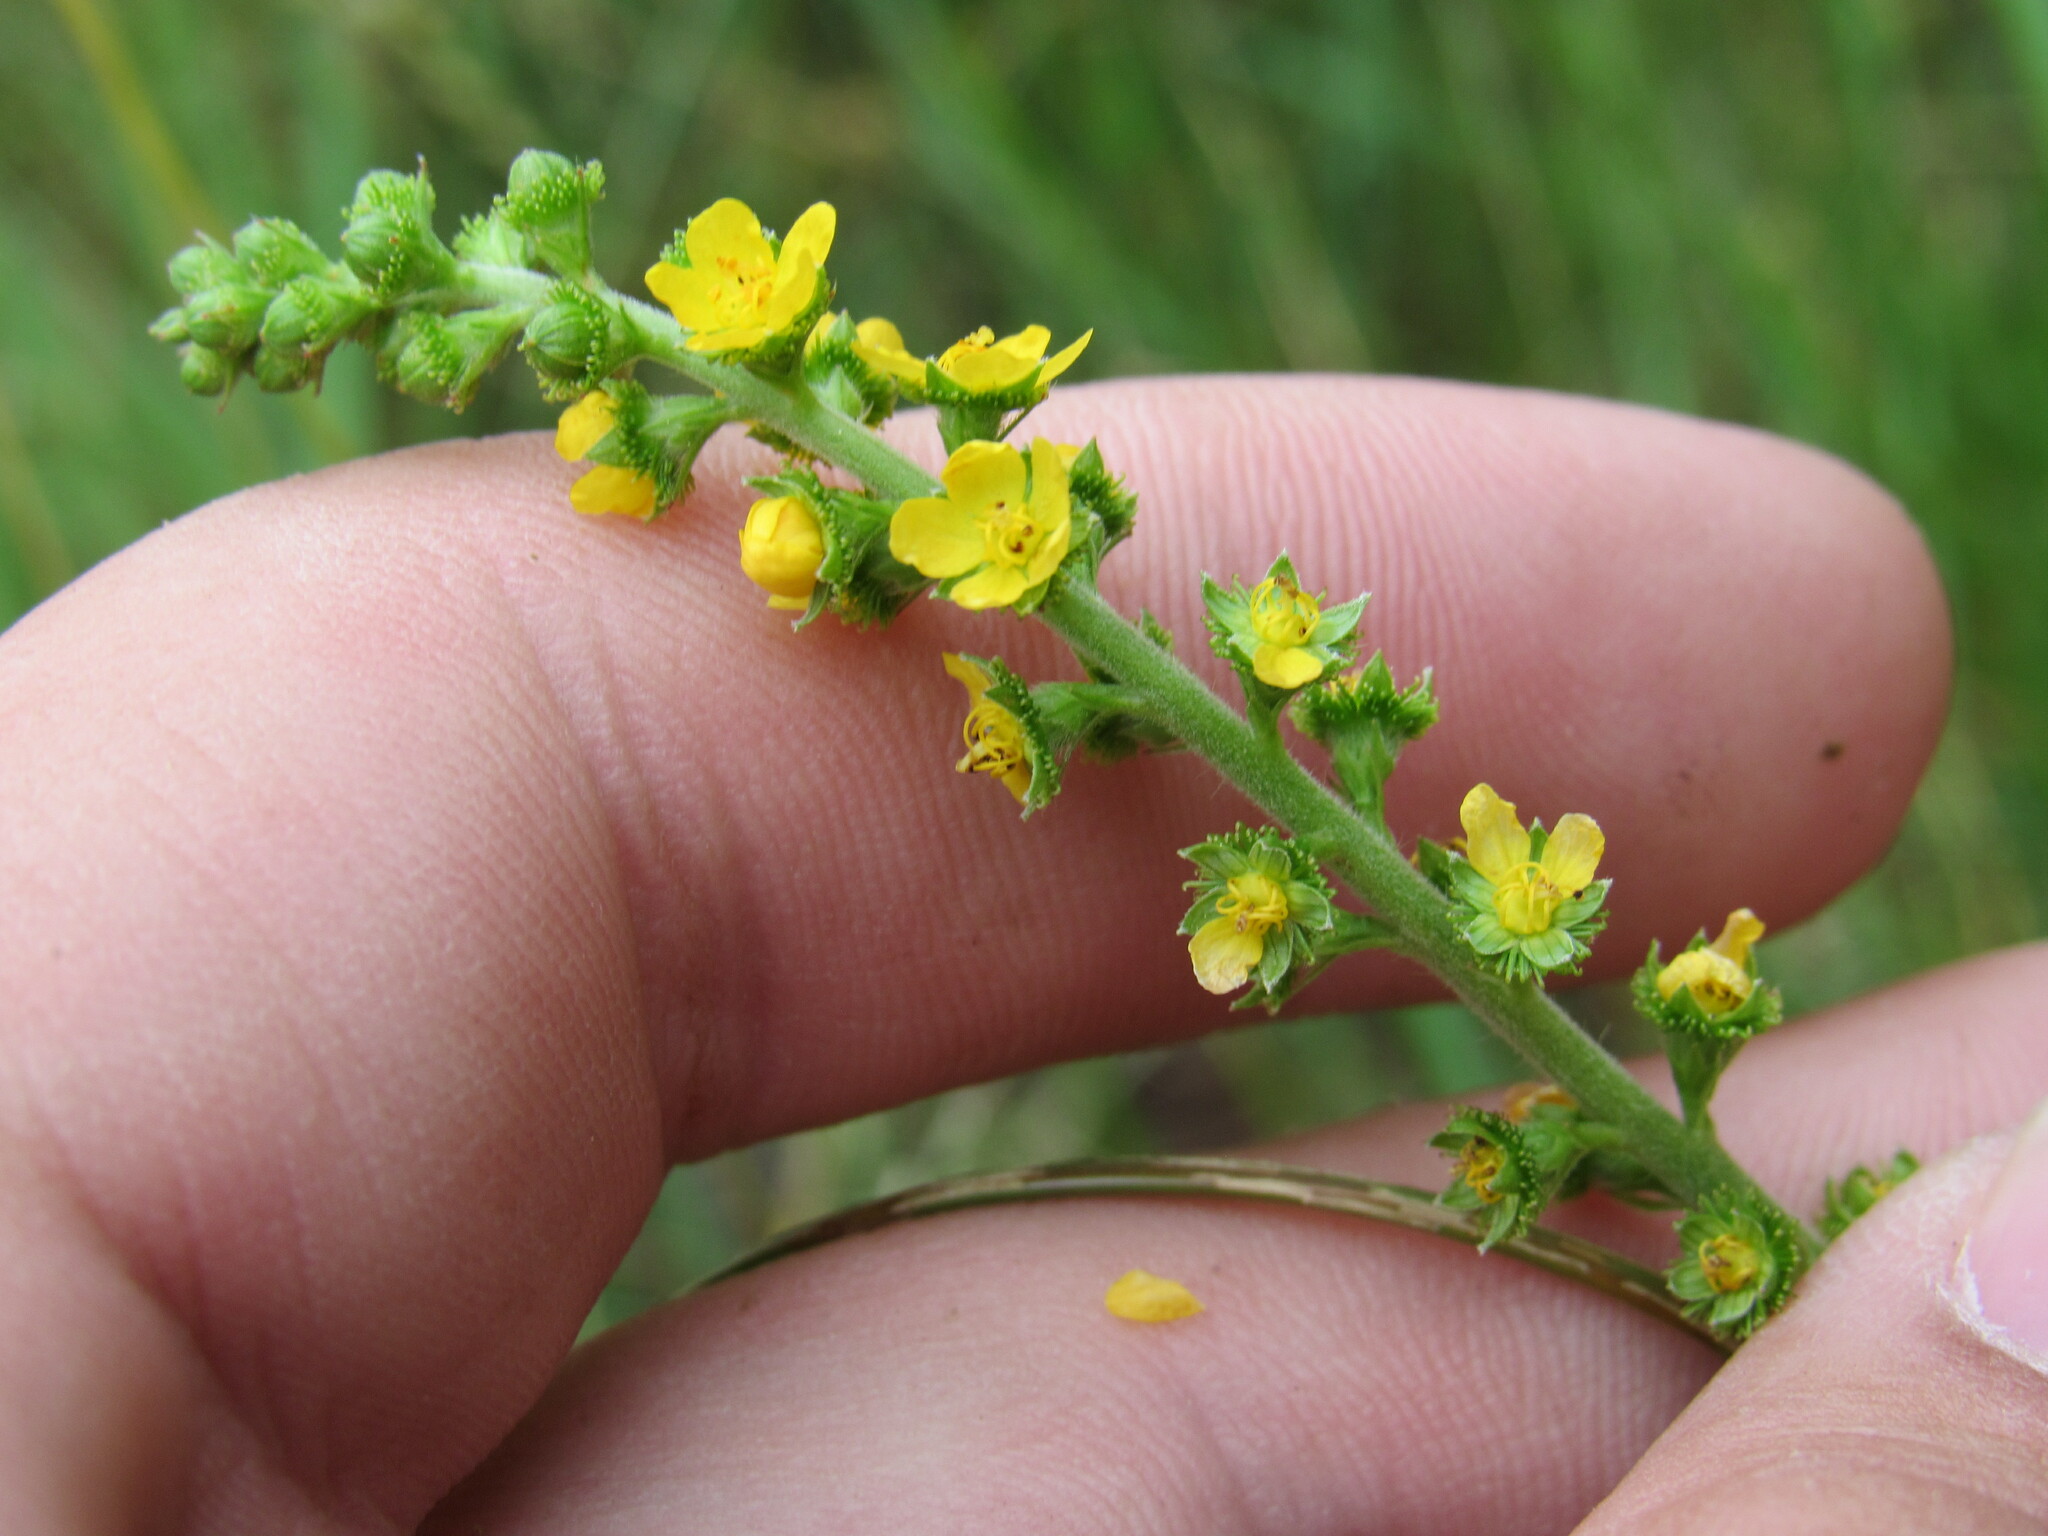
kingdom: Plantae
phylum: Tracheophyta
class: Magnoliopsida
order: Rosales
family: Rosaceae
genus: Agrimonia
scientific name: Agrimonia striata
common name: Britton's agrimony
